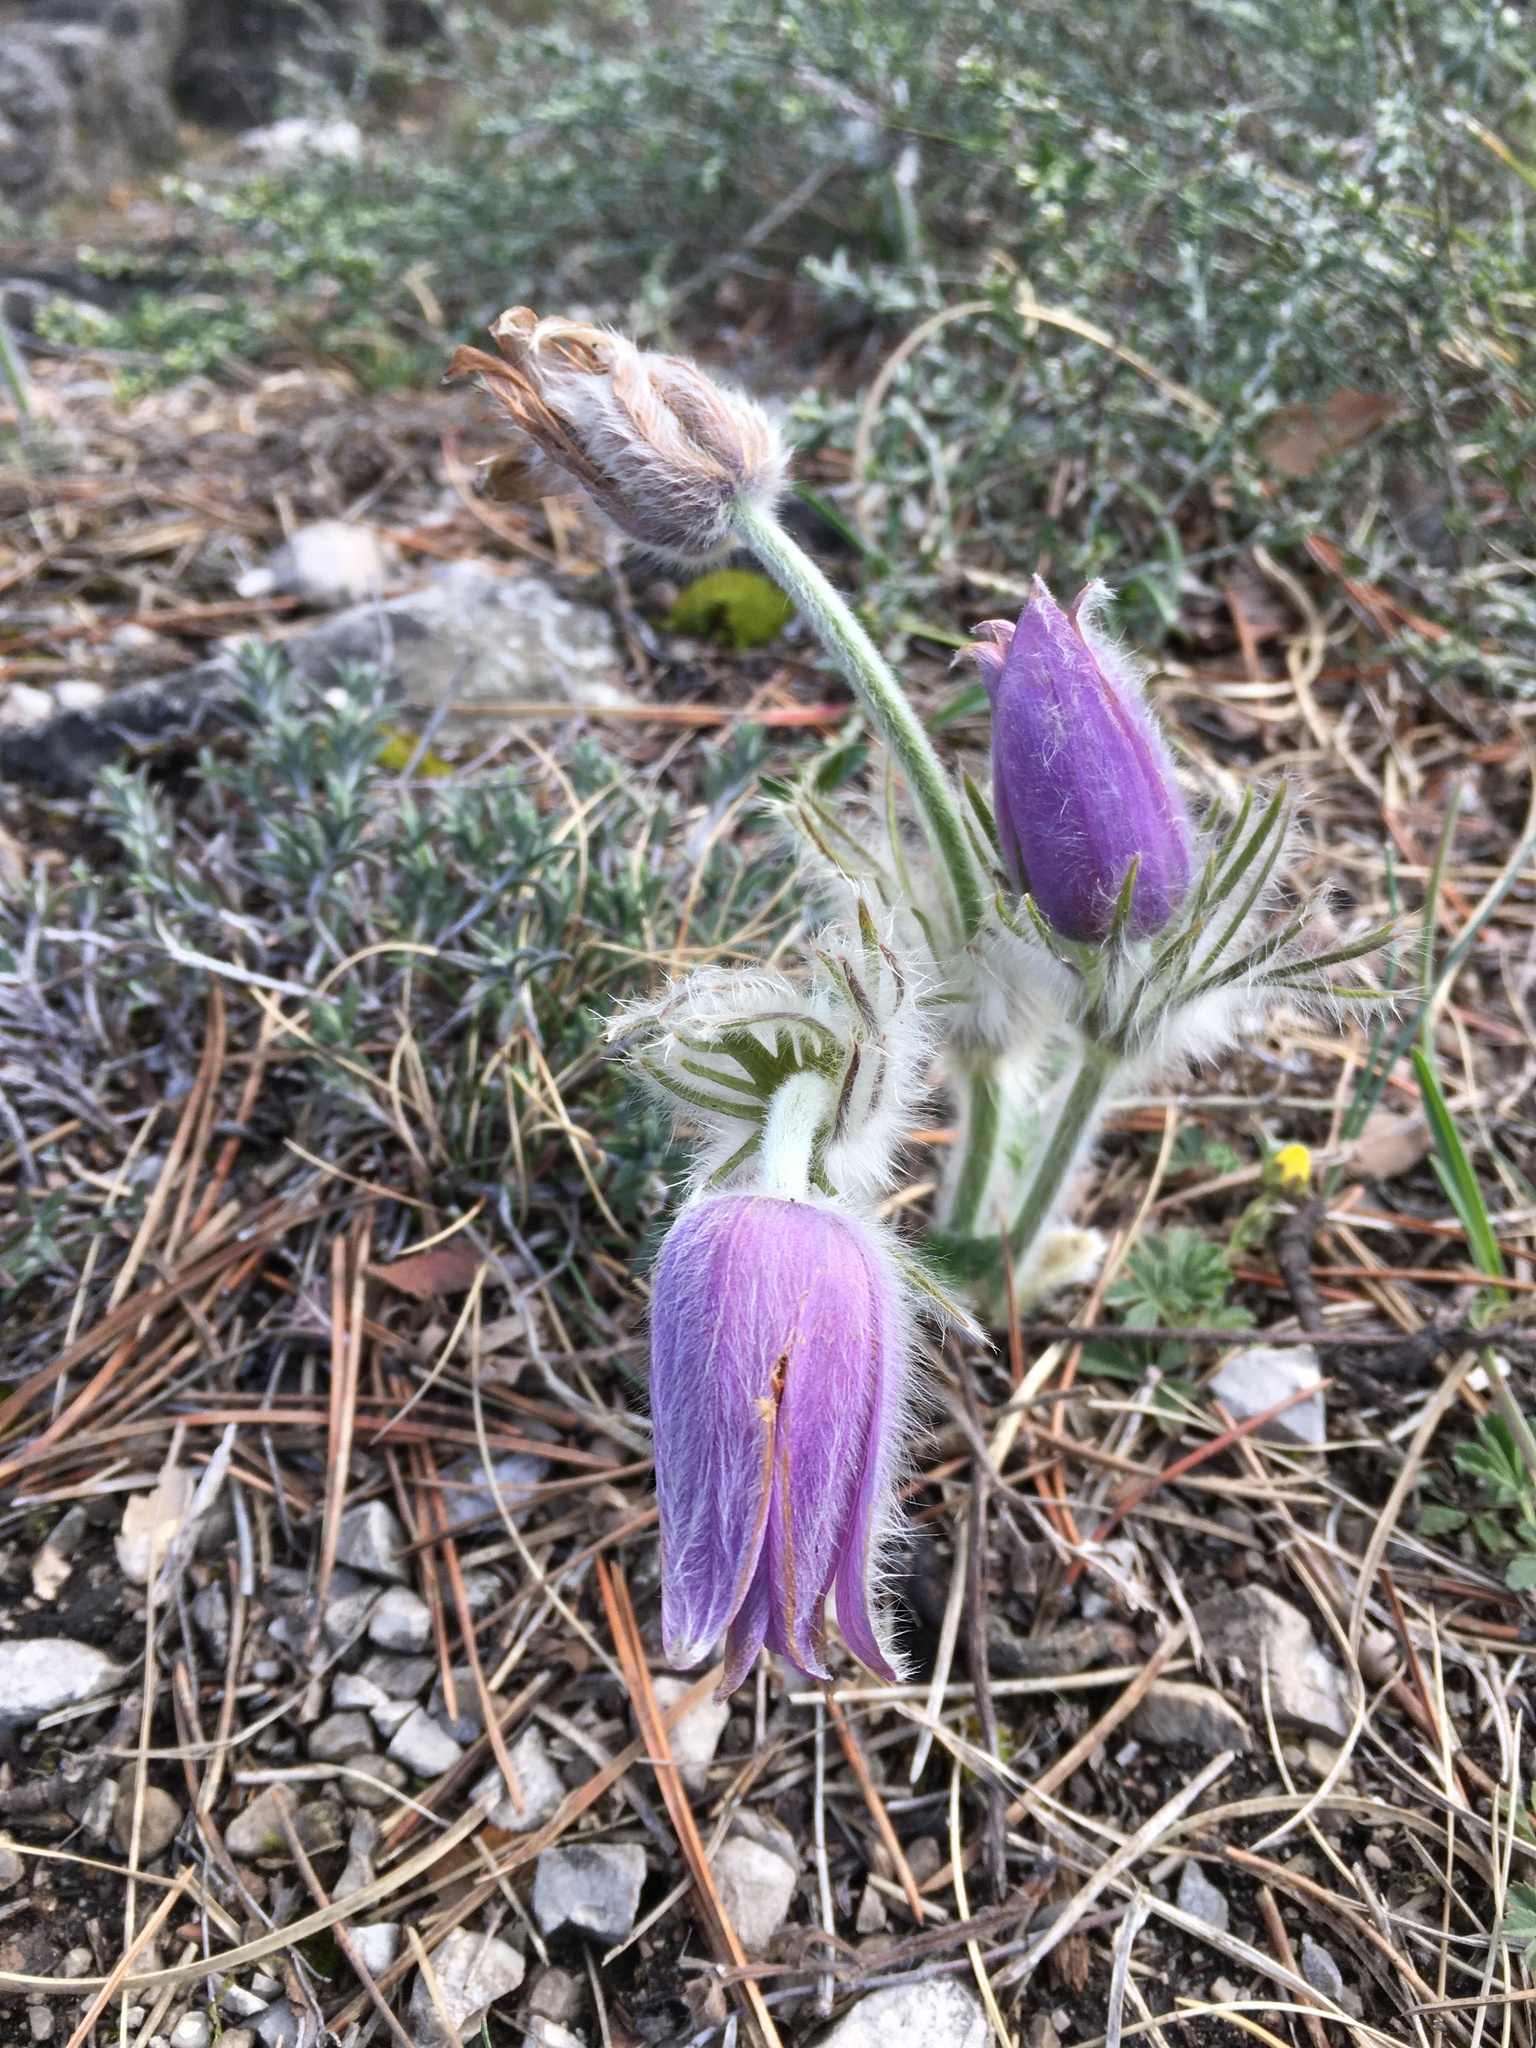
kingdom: Plantae
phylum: Tracheophyta
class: Magnoliopsida
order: Ranunculales
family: Ranunculaceae
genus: Pulsatilla
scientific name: Pulsatilla grandis
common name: Greater pasque flower
